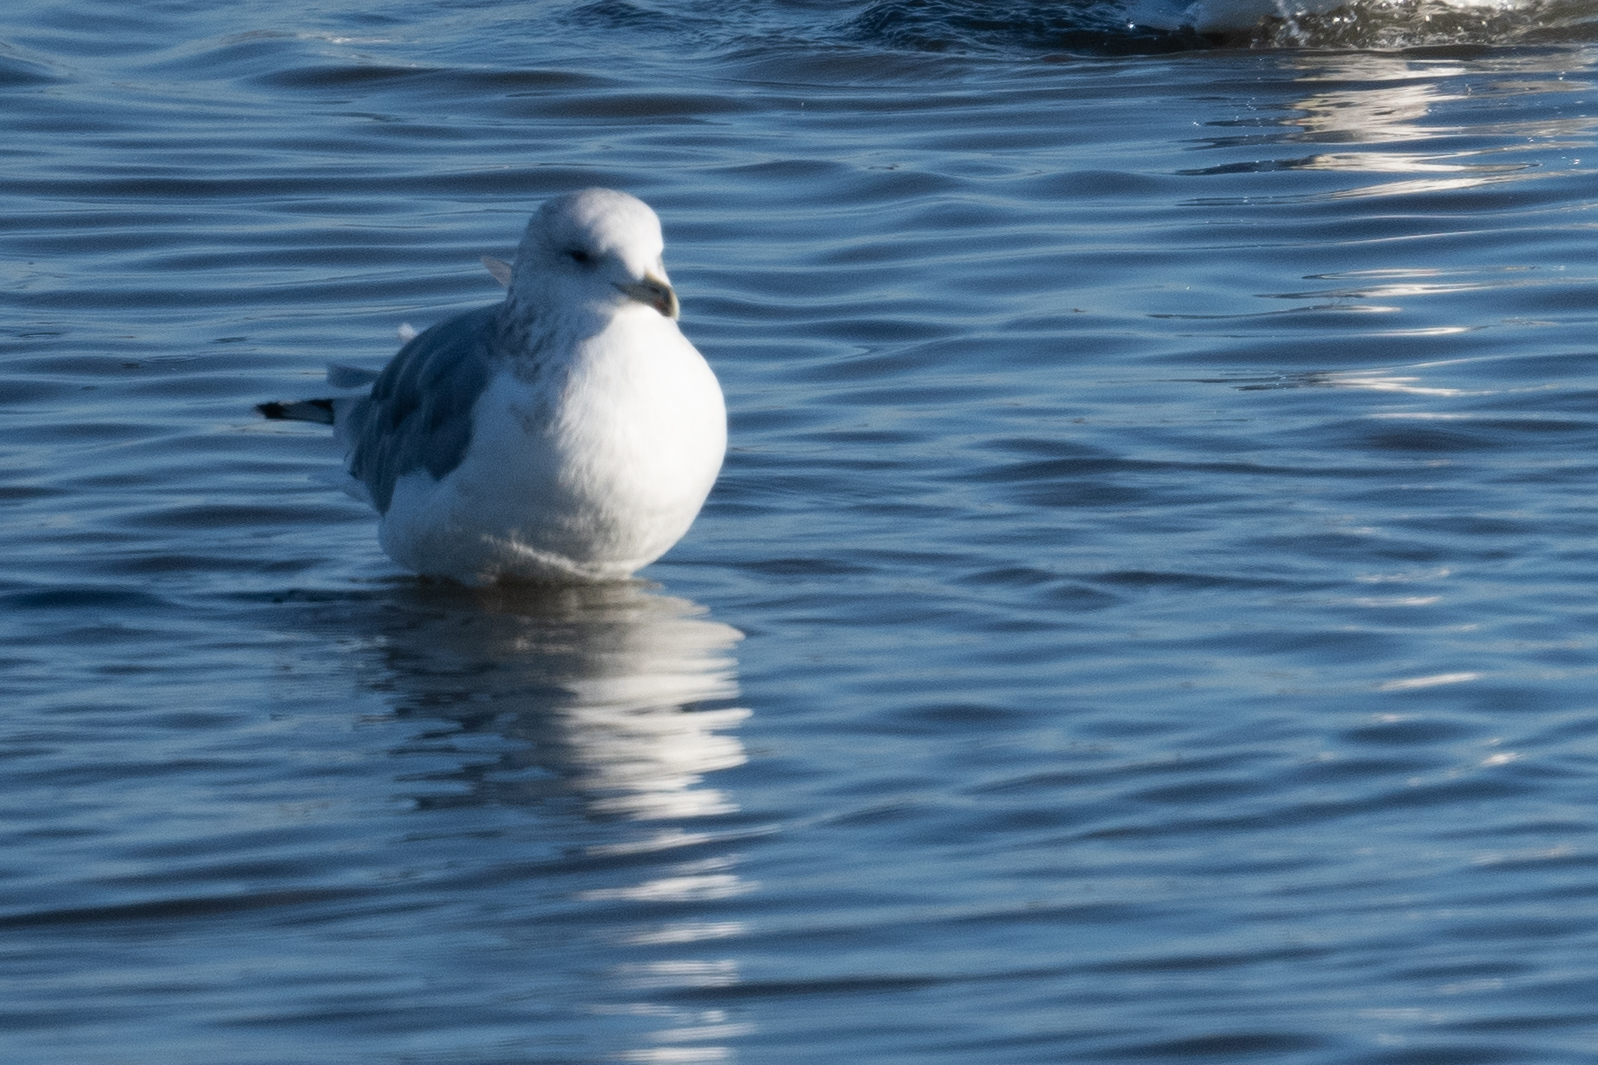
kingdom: Animalia
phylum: Chordata
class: Aves
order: Charadriiformes
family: Laridae
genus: Larus
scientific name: Larus delawarensis
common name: Ring-billed gull
